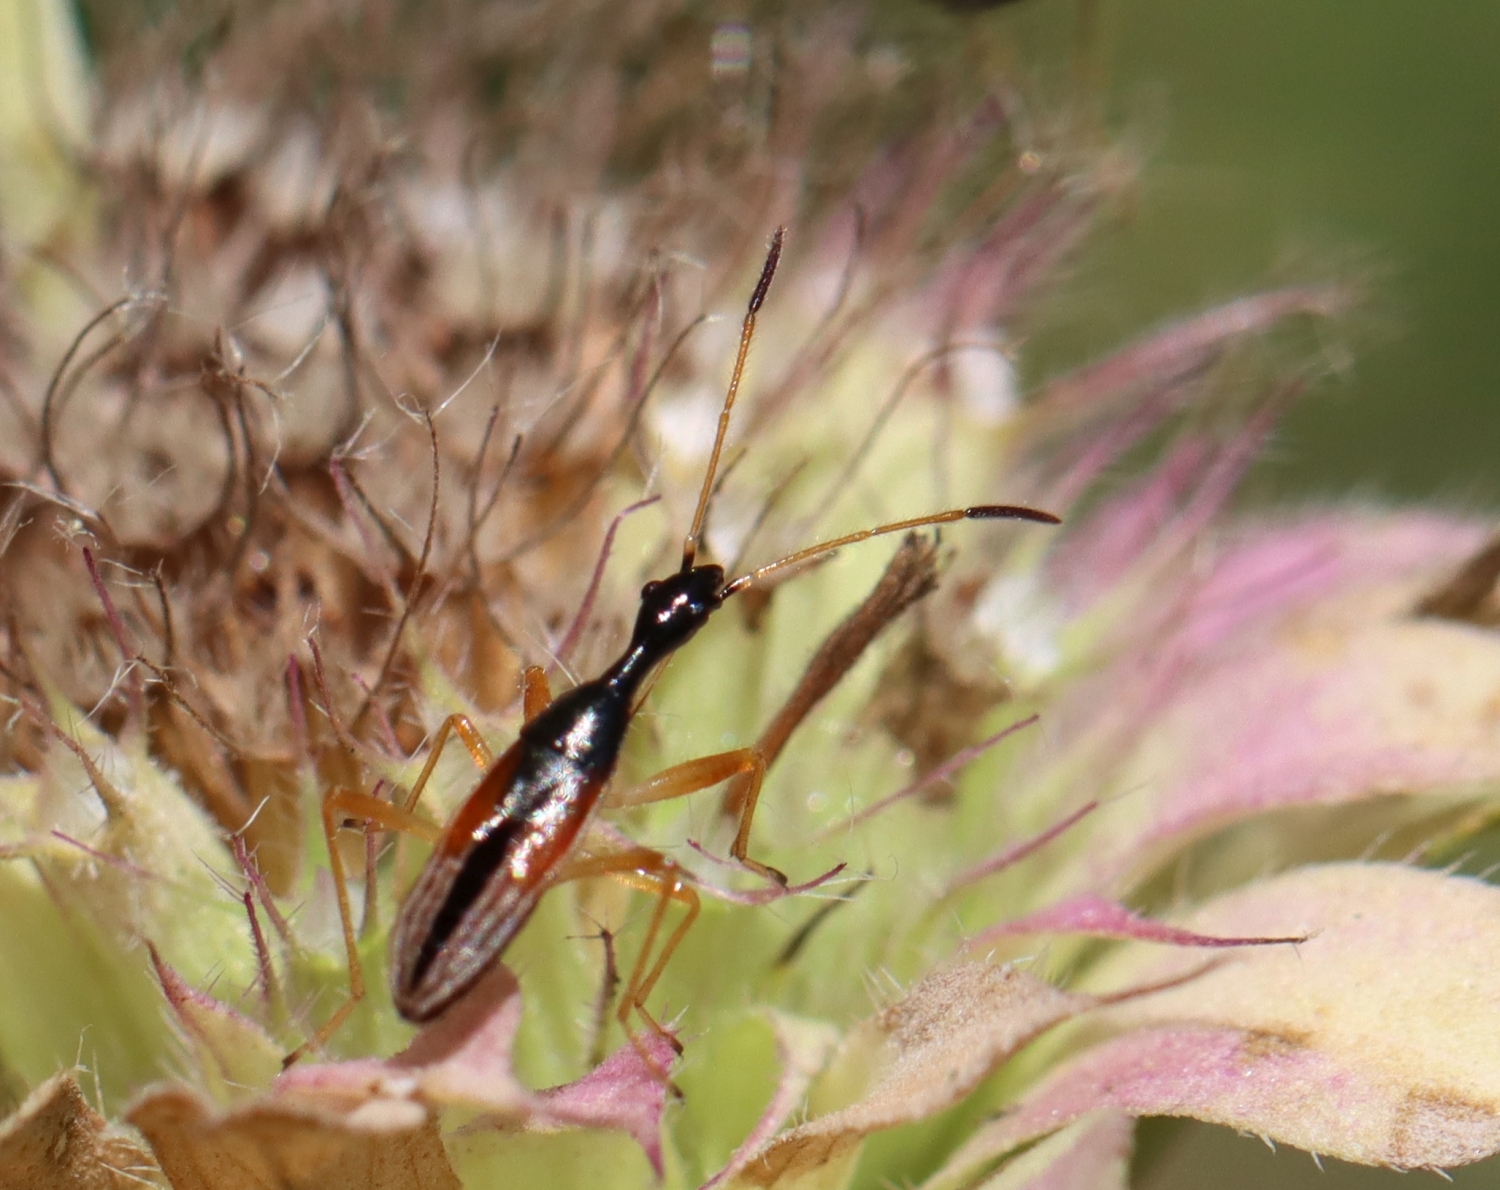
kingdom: Animalia
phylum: Arthropoda
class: Insecta
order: Hemiptera
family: Rhyparochromidae
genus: Myodocha
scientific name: Myodocha serripes
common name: Long-necked seed bug
